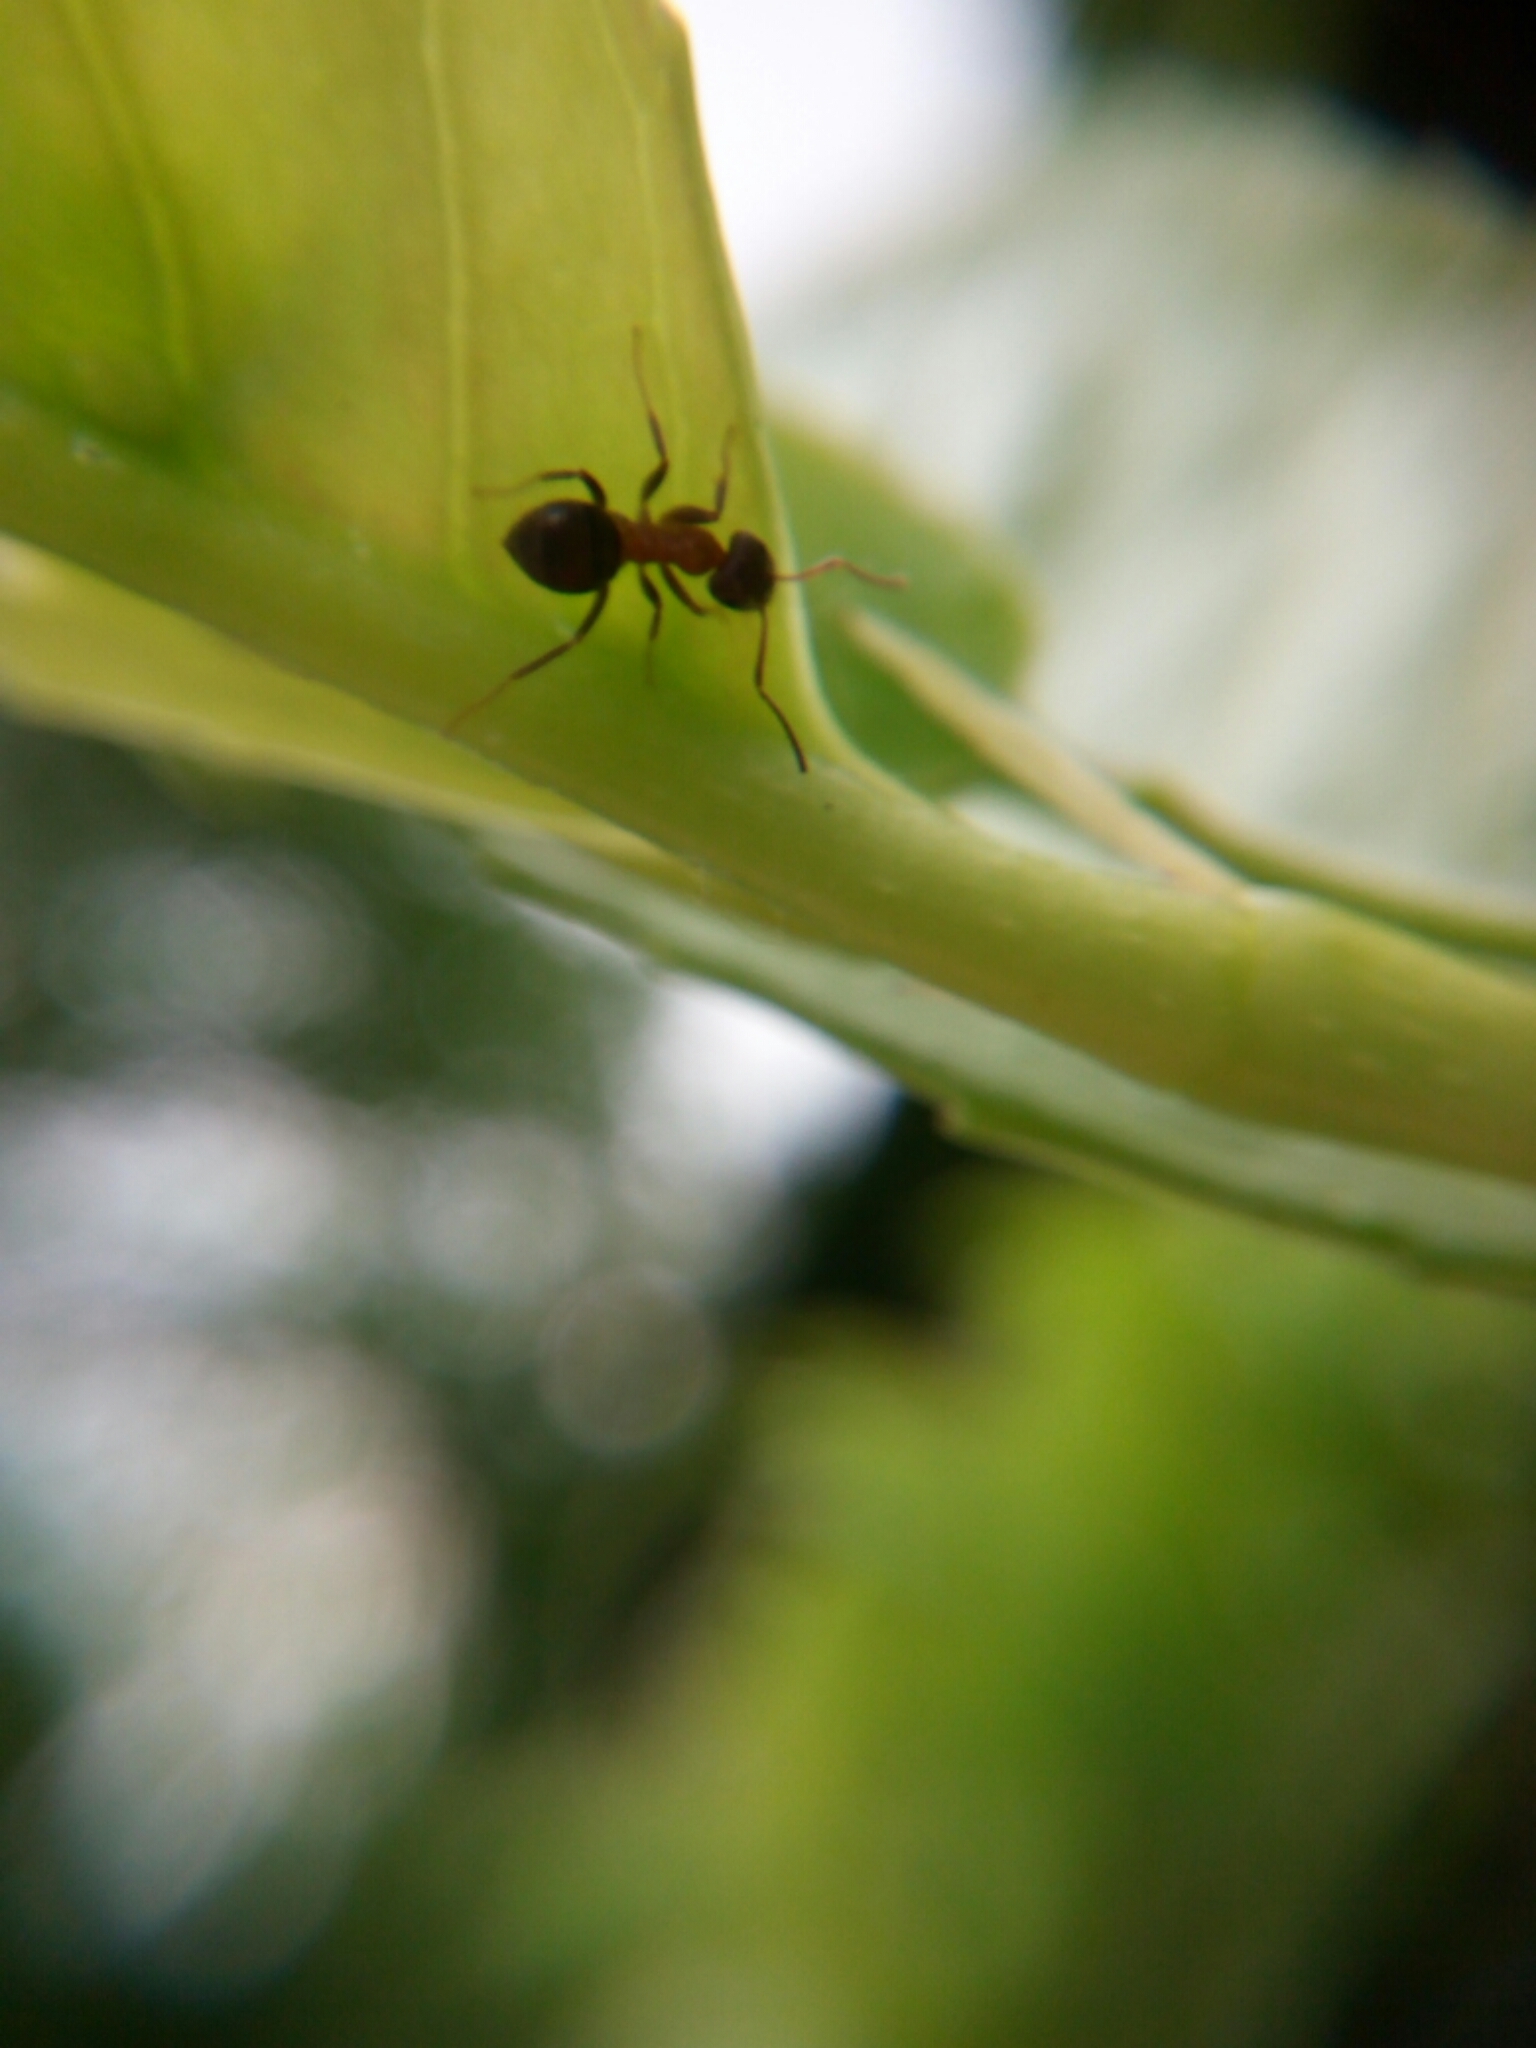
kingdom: Animalia
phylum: Arthropoda
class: Insecta
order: Hymenoptera
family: Formicidae
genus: Lasius
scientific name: Lasius emarginatus
